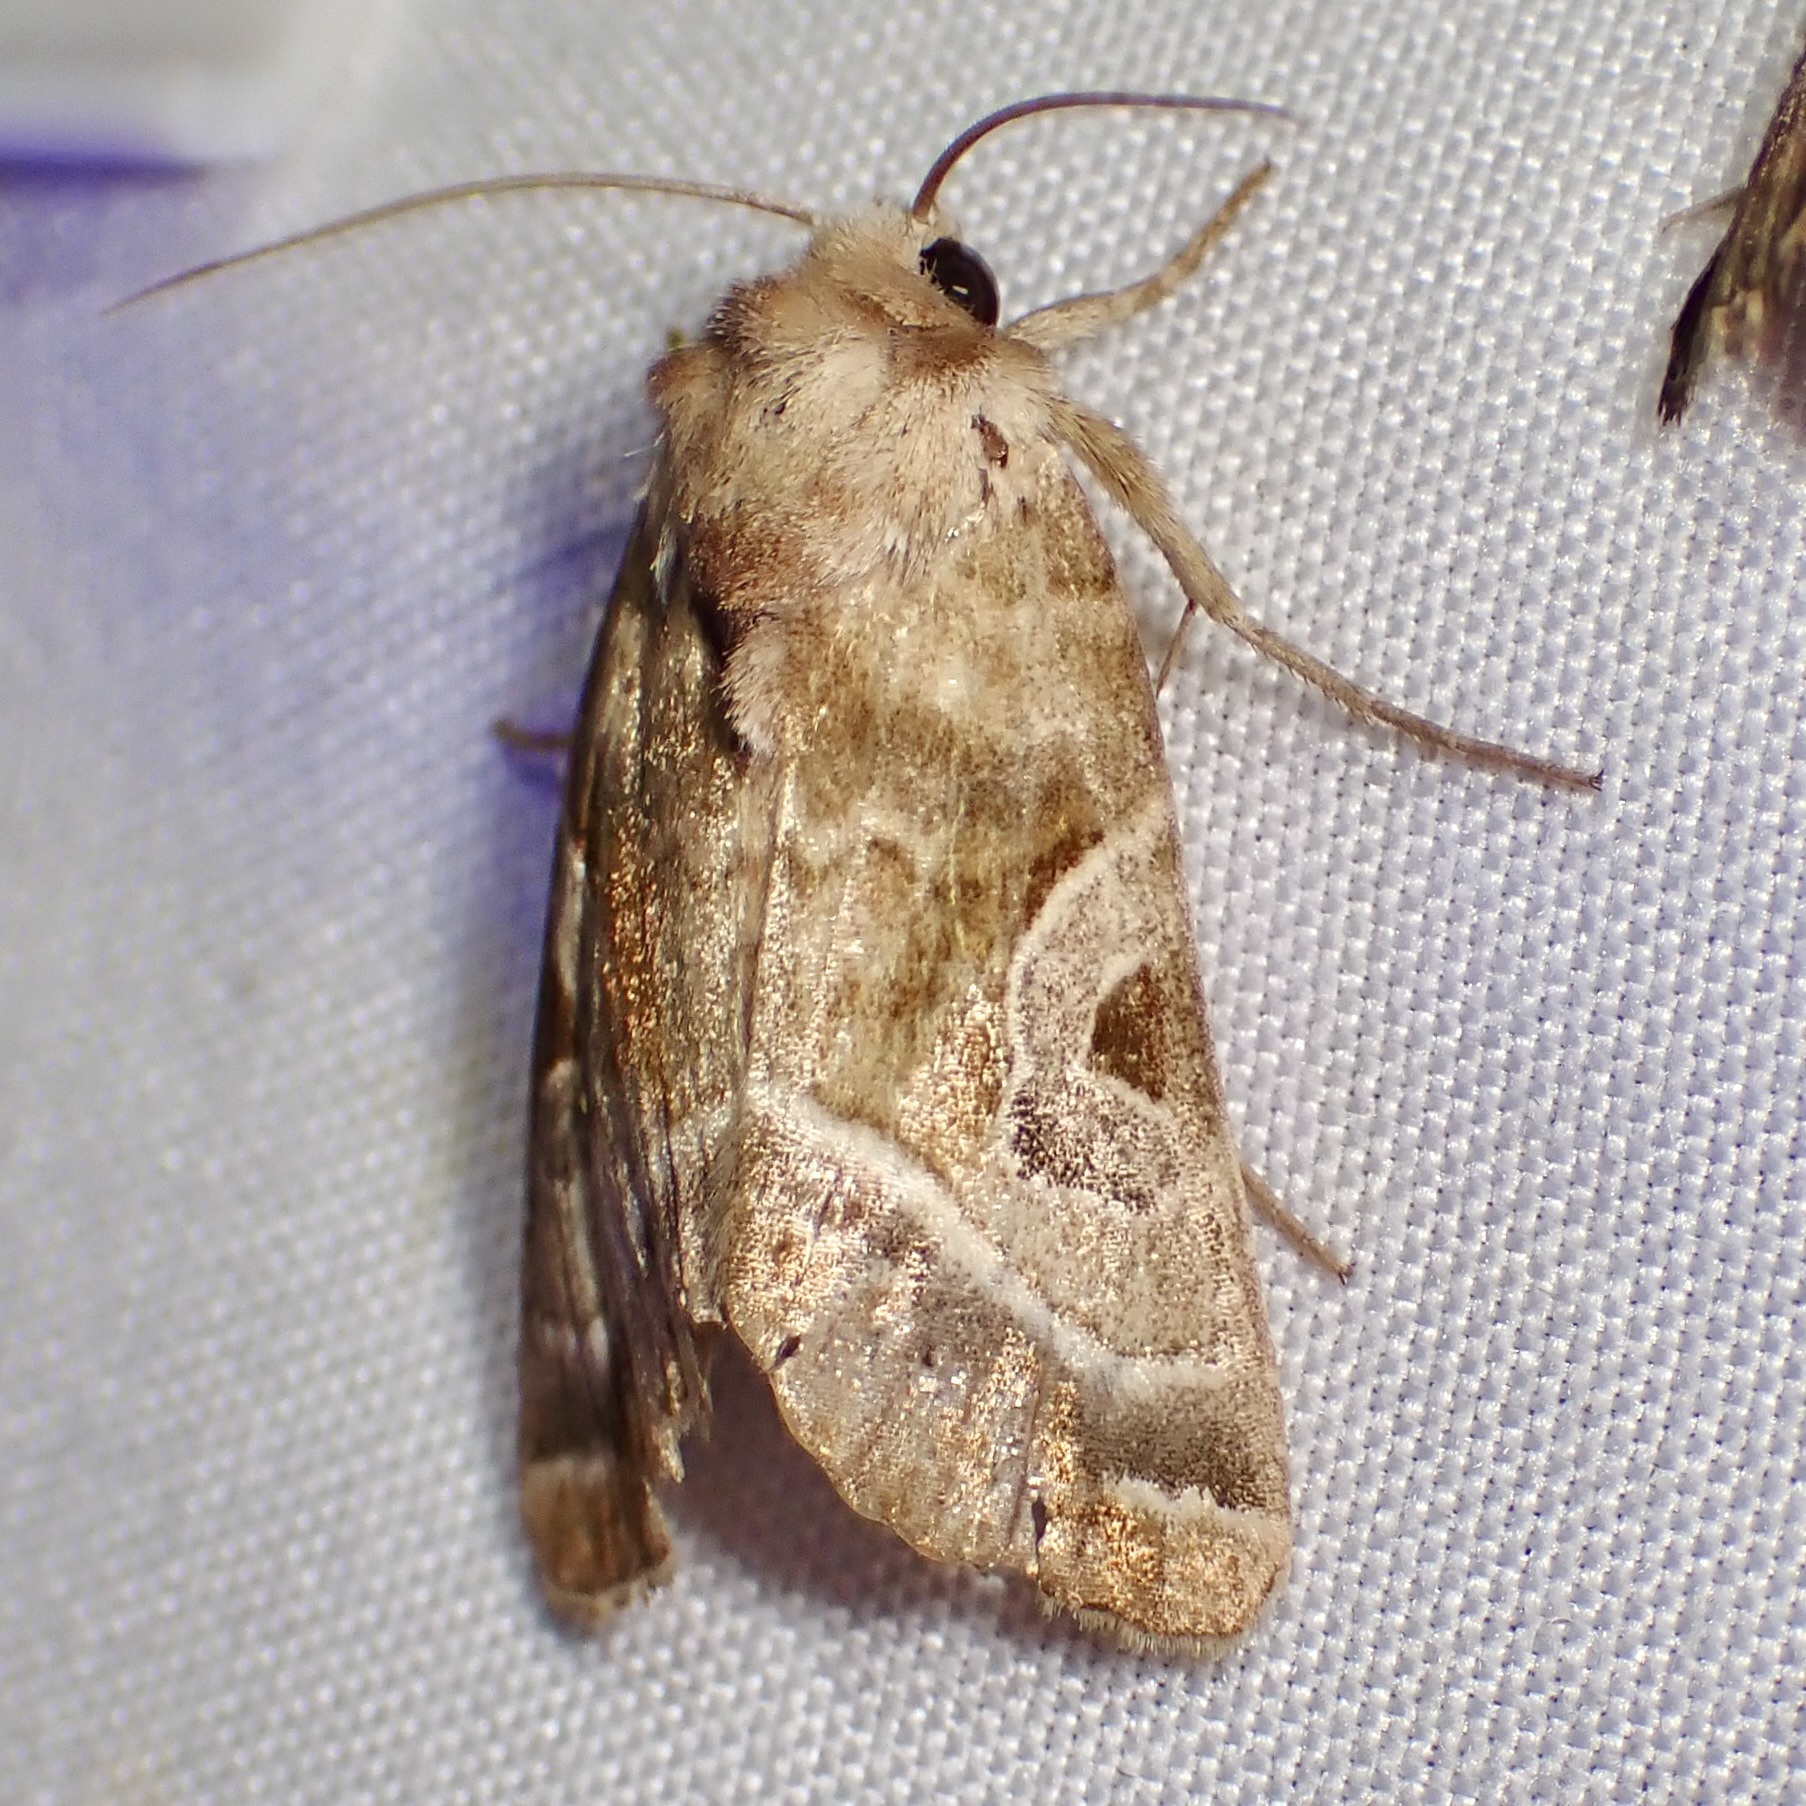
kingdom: Animalia
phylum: Arthropoda
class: Insecta
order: Lepidoptera
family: Noctuidae
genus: Hexorthodes
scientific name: Hexorthodes accurata
